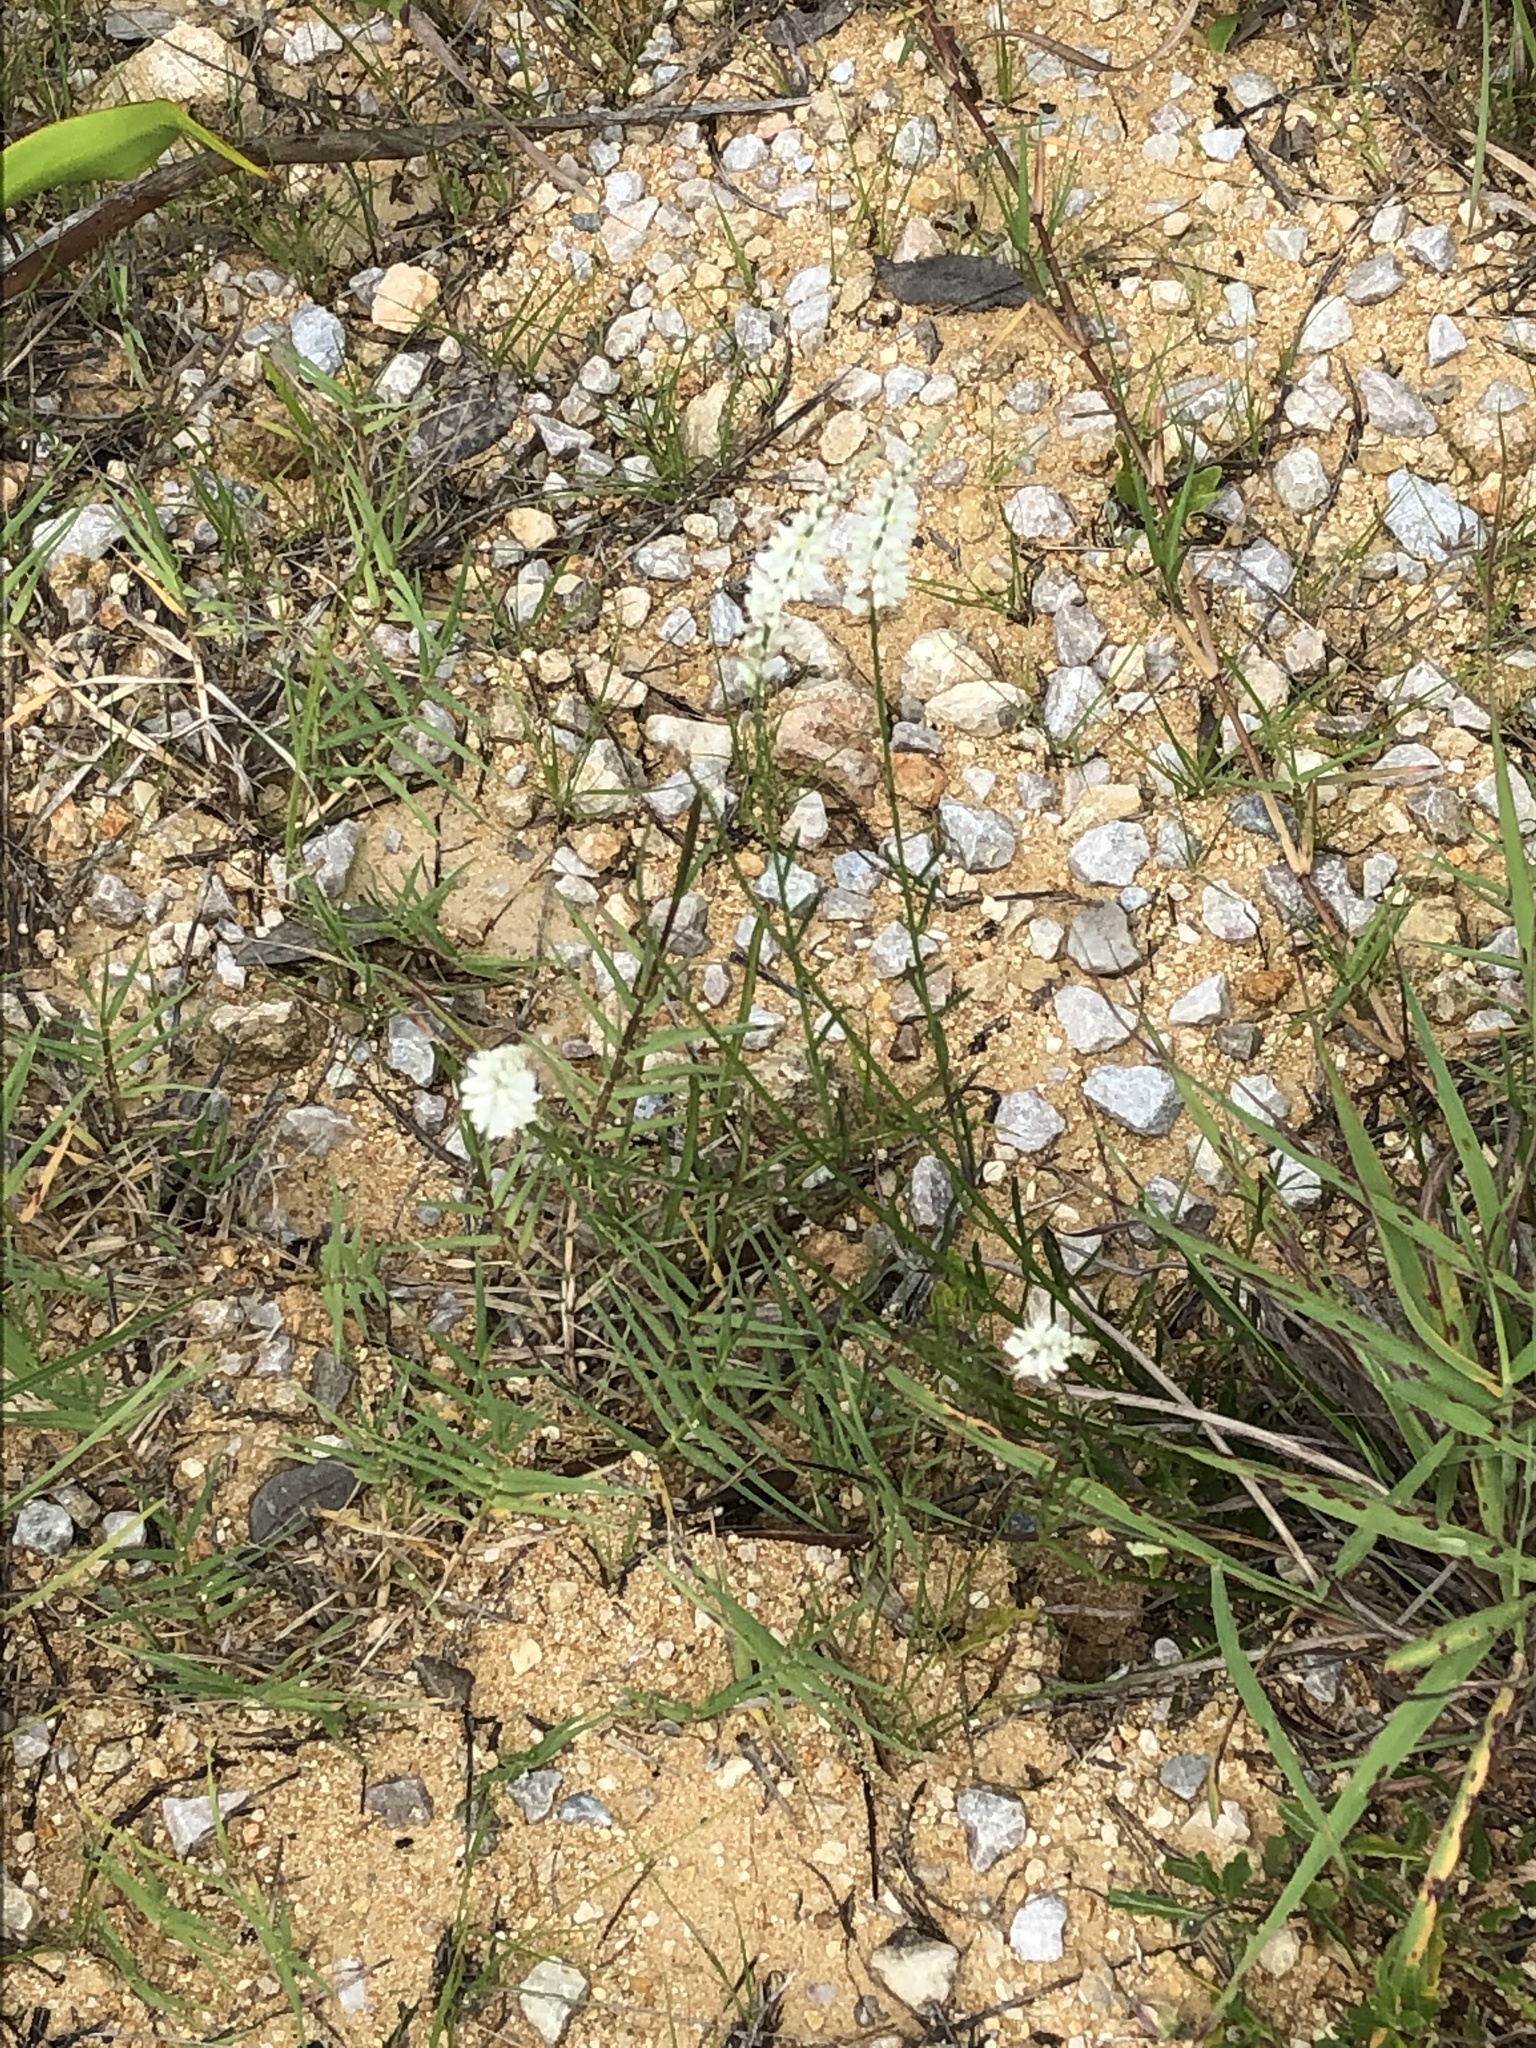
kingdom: Plantae
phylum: Tracheophyta
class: Magnoliopsida
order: Fabales
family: Polygalaceae
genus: Polygala
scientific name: Polygala alba
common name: White milkwort
